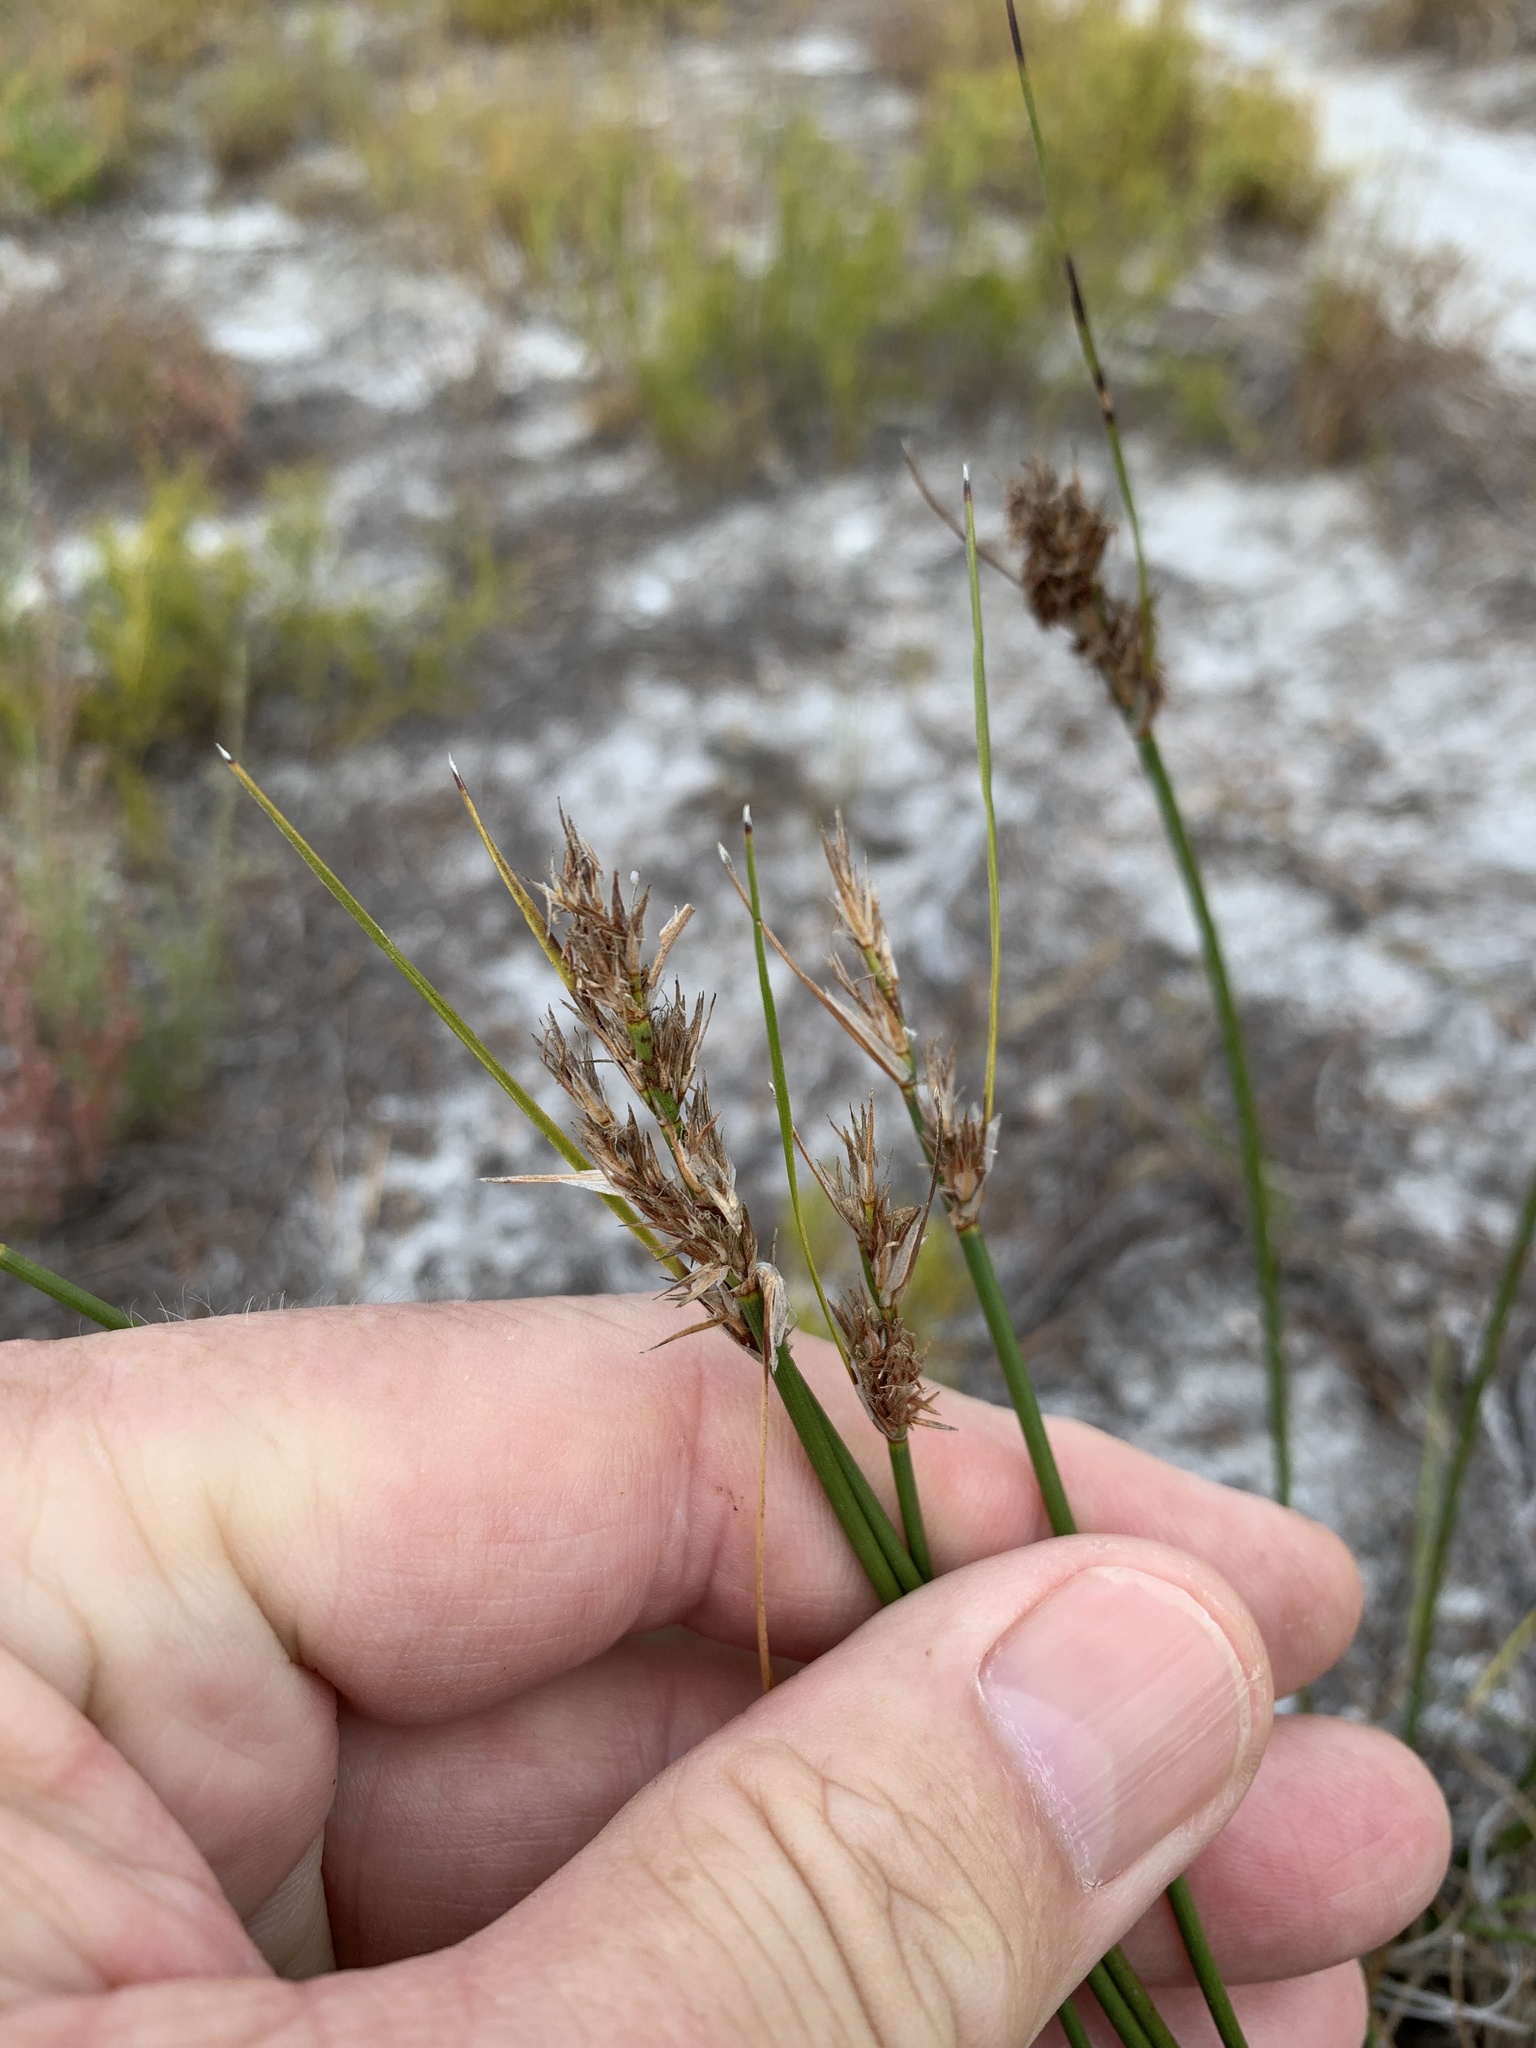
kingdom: Plantae
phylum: Tracheophyta
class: Liliopsida
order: Poales
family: Cyperaceae
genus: Schoenus
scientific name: Schoenus auritus
